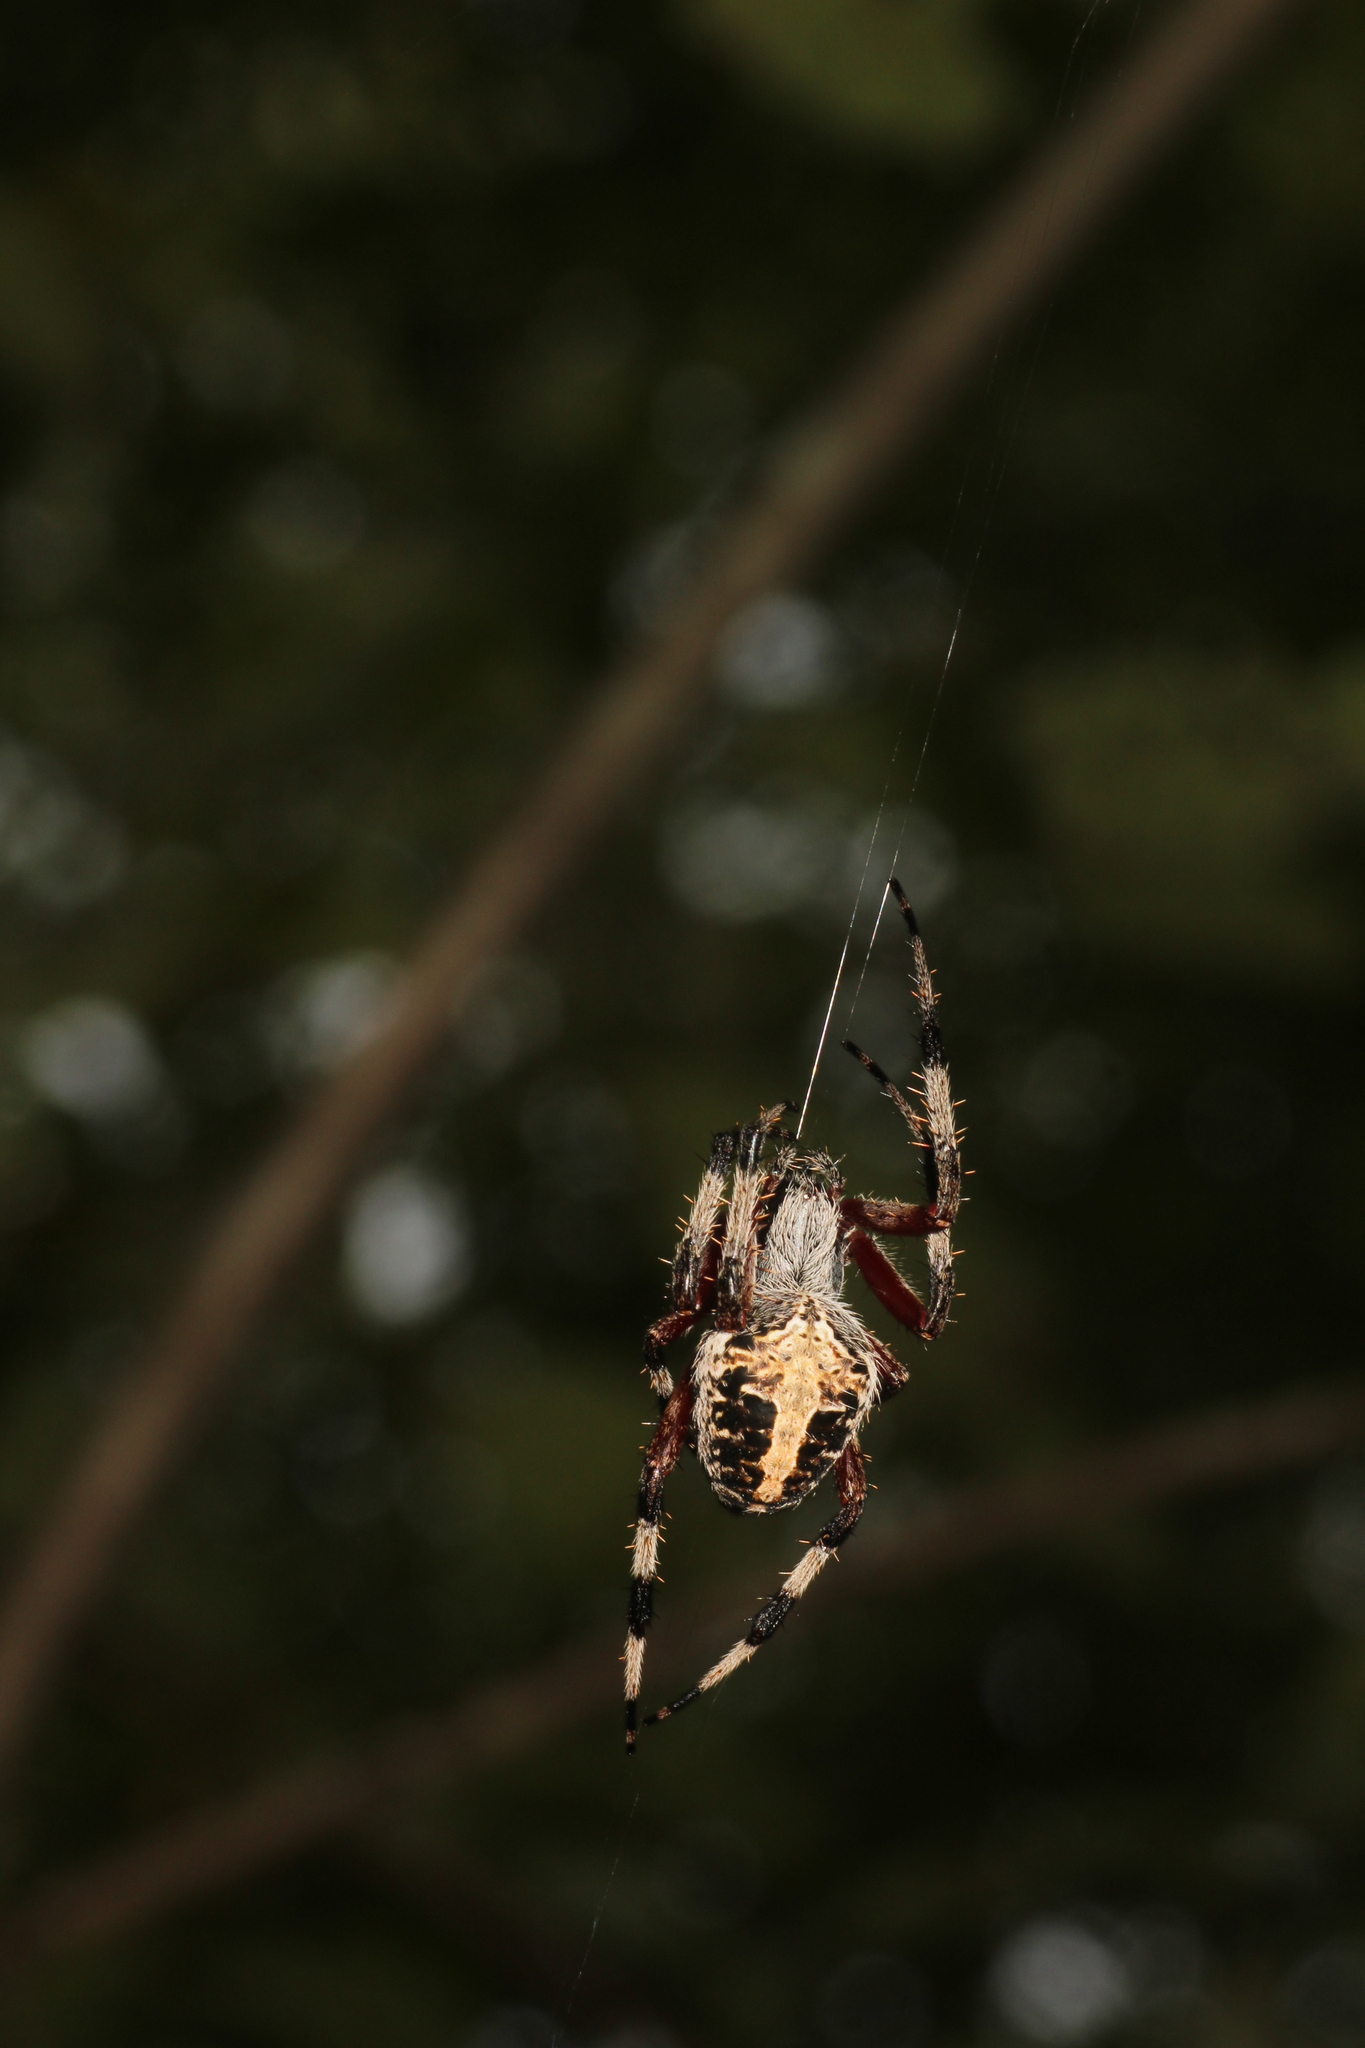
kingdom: Animalia
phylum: Arthropoda
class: Arachnida
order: Araneae
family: Araneidae
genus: Neoscona
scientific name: Neoscona domiciliorum
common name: Red-femured spotted orbweaver
